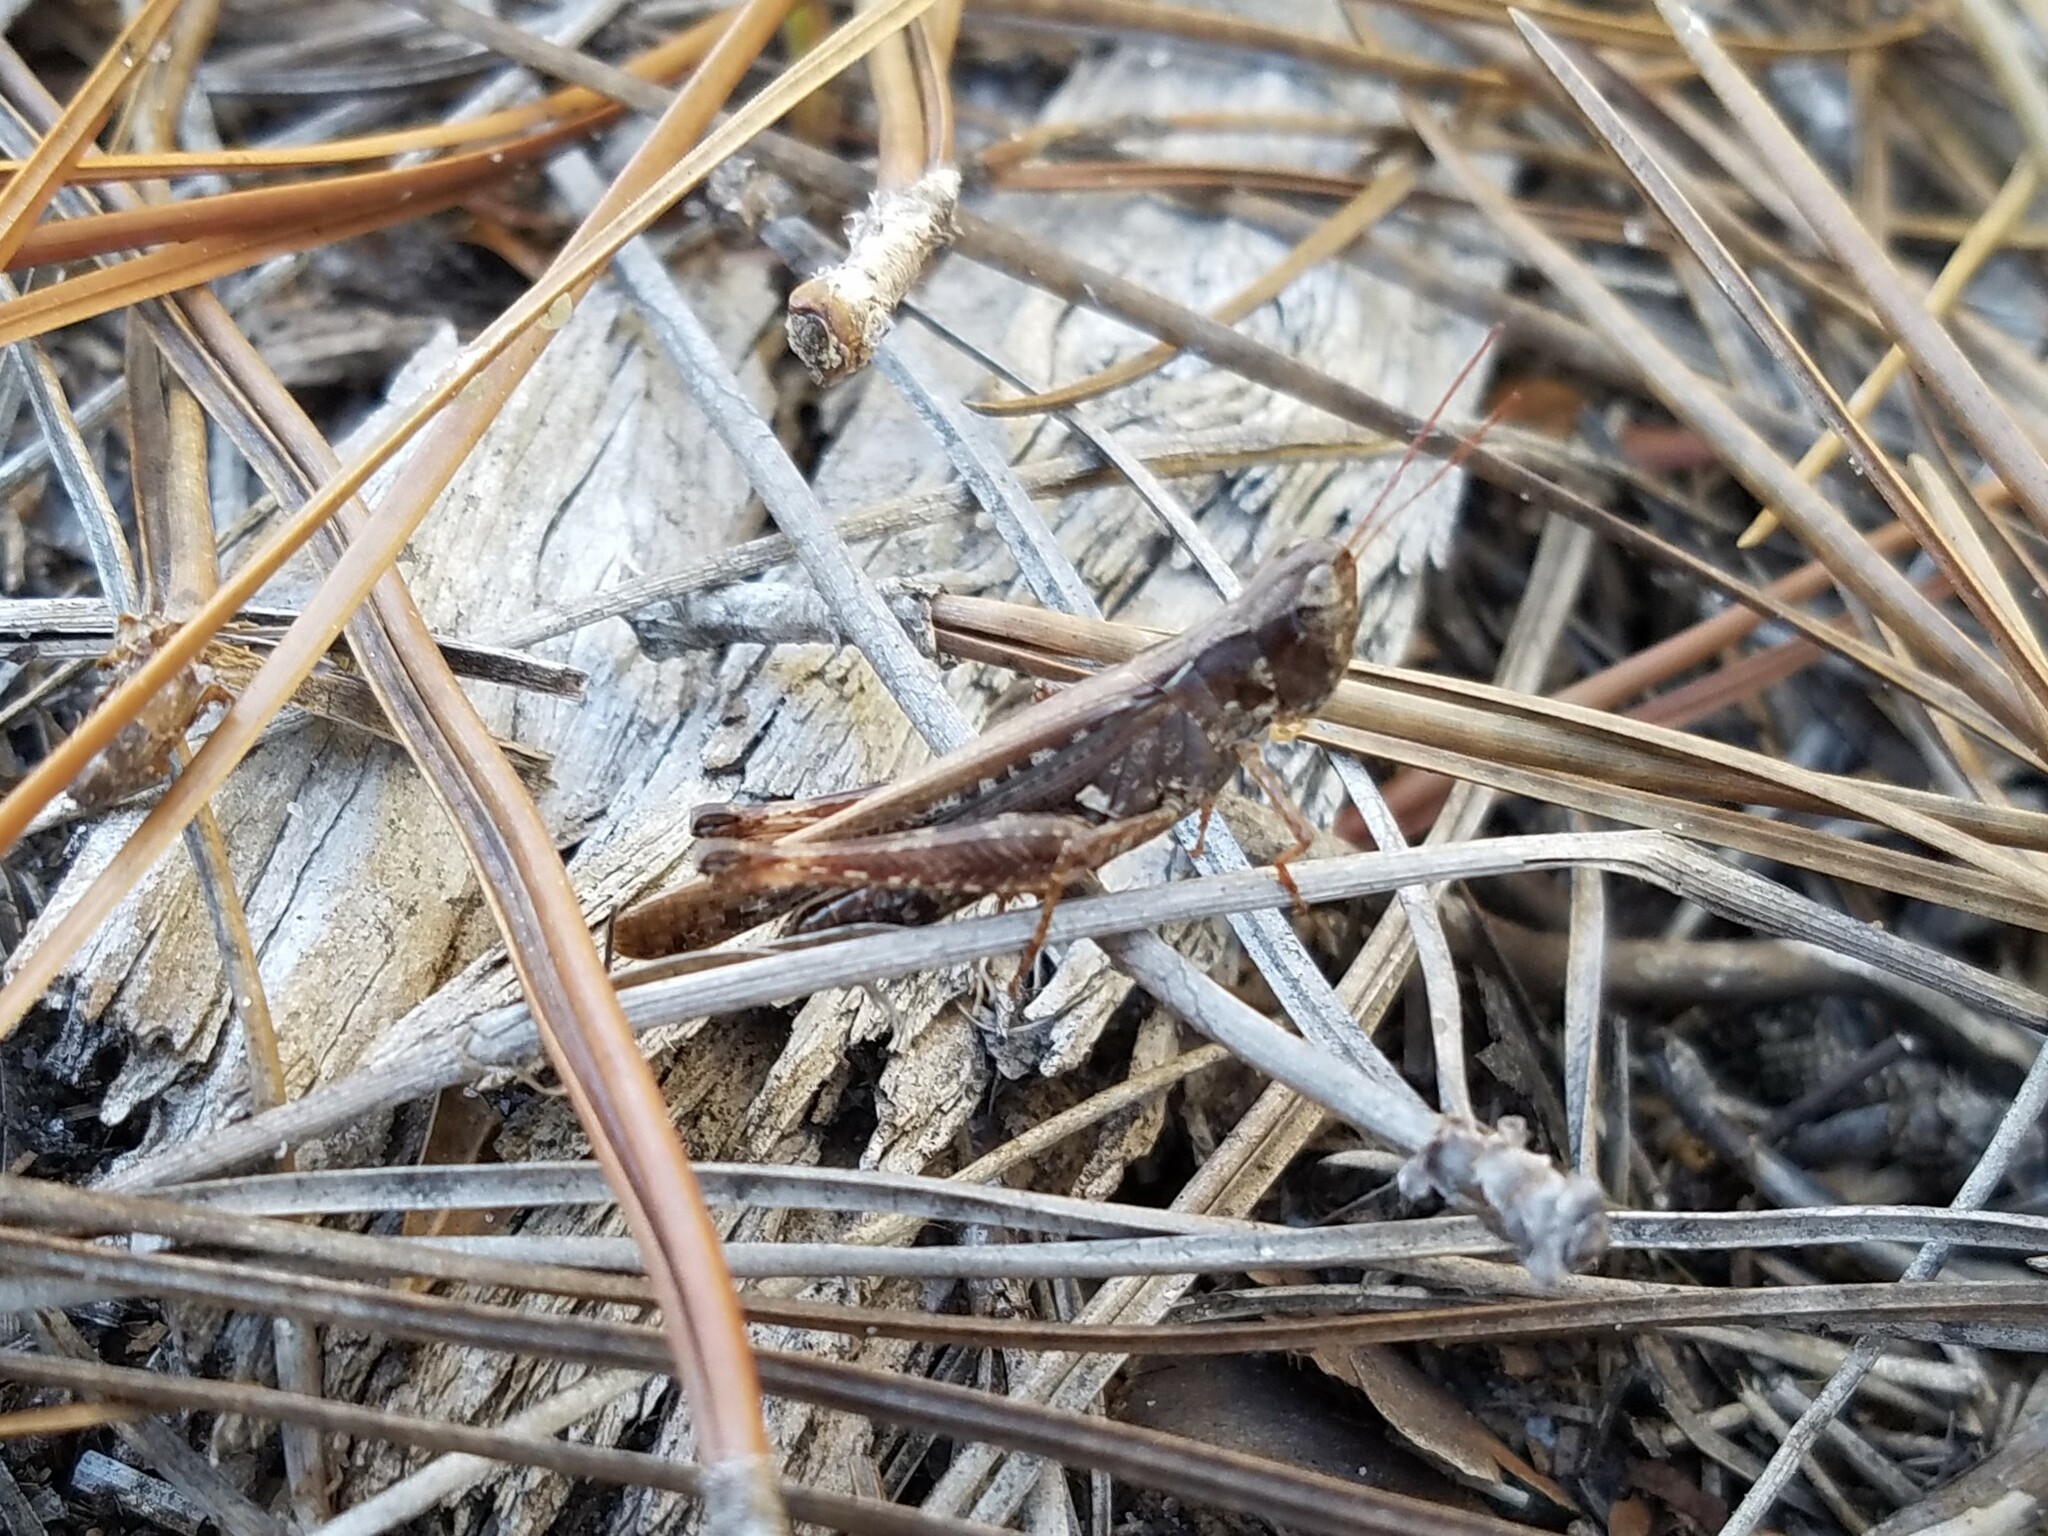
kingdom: Animalia
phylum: Arthropoda
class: Insecta
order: Orthoptera
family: Acrididae
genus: Orphulella
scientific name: Orphulella pelidna
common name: Spotted-wing grasshopper
